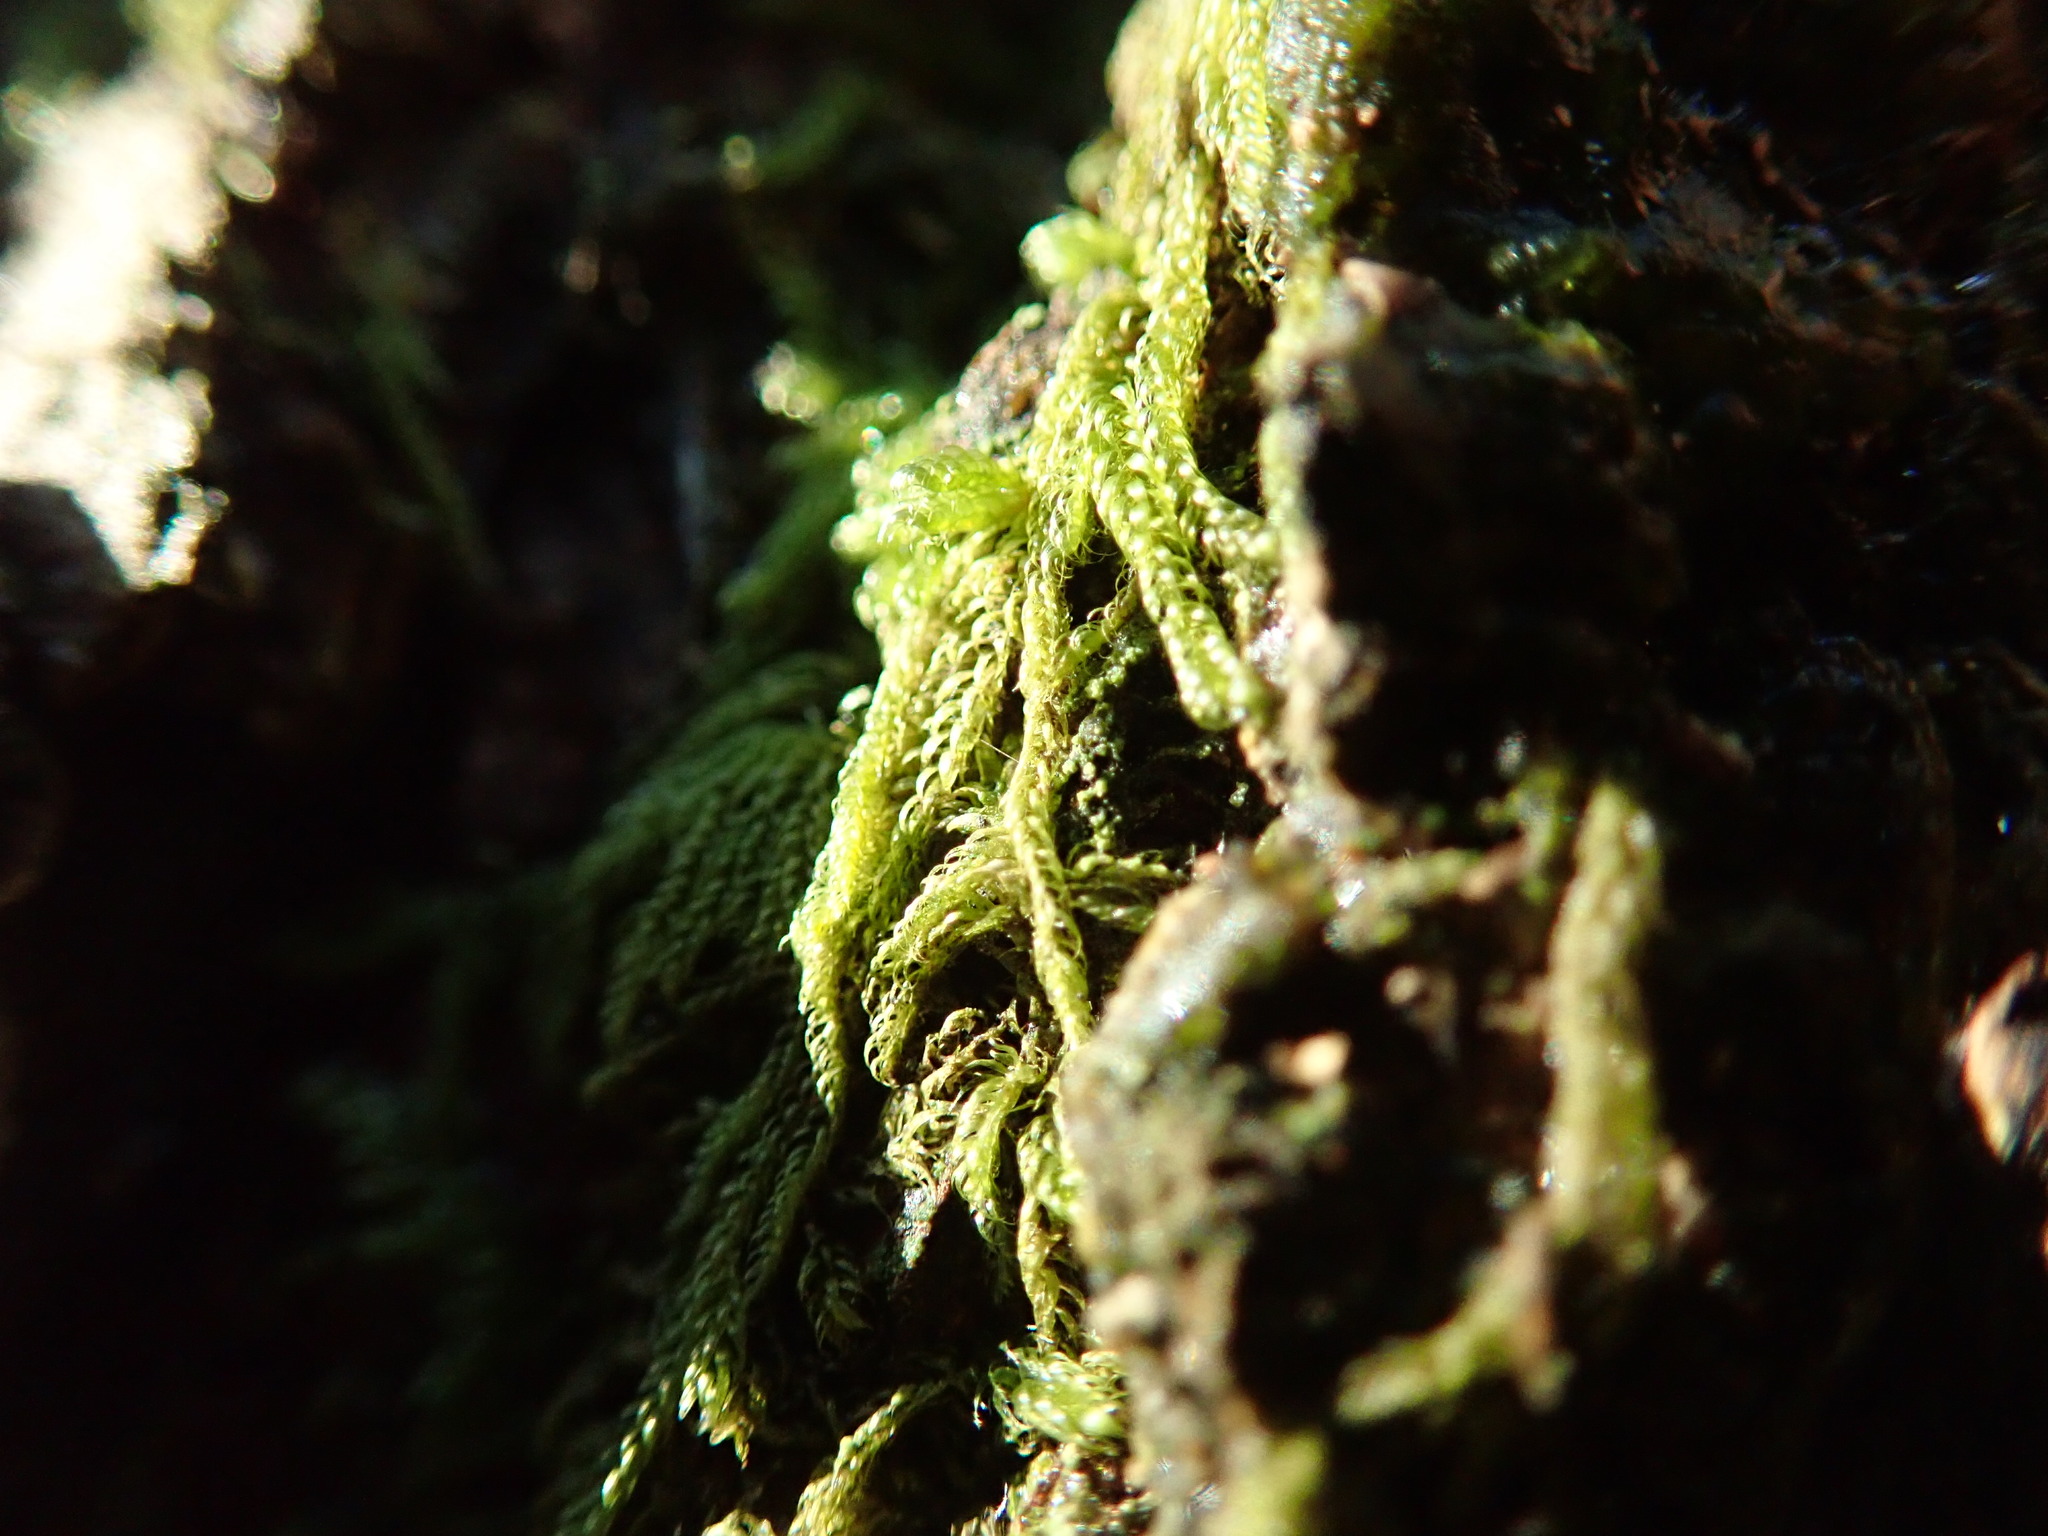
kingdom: Plantae
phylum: Bryophyta
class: Bryopsida
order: Hypnales
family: Pylaisiadelphaceae
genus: Trochophyllohypnum
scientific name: Trochophyllohypnum circinale
